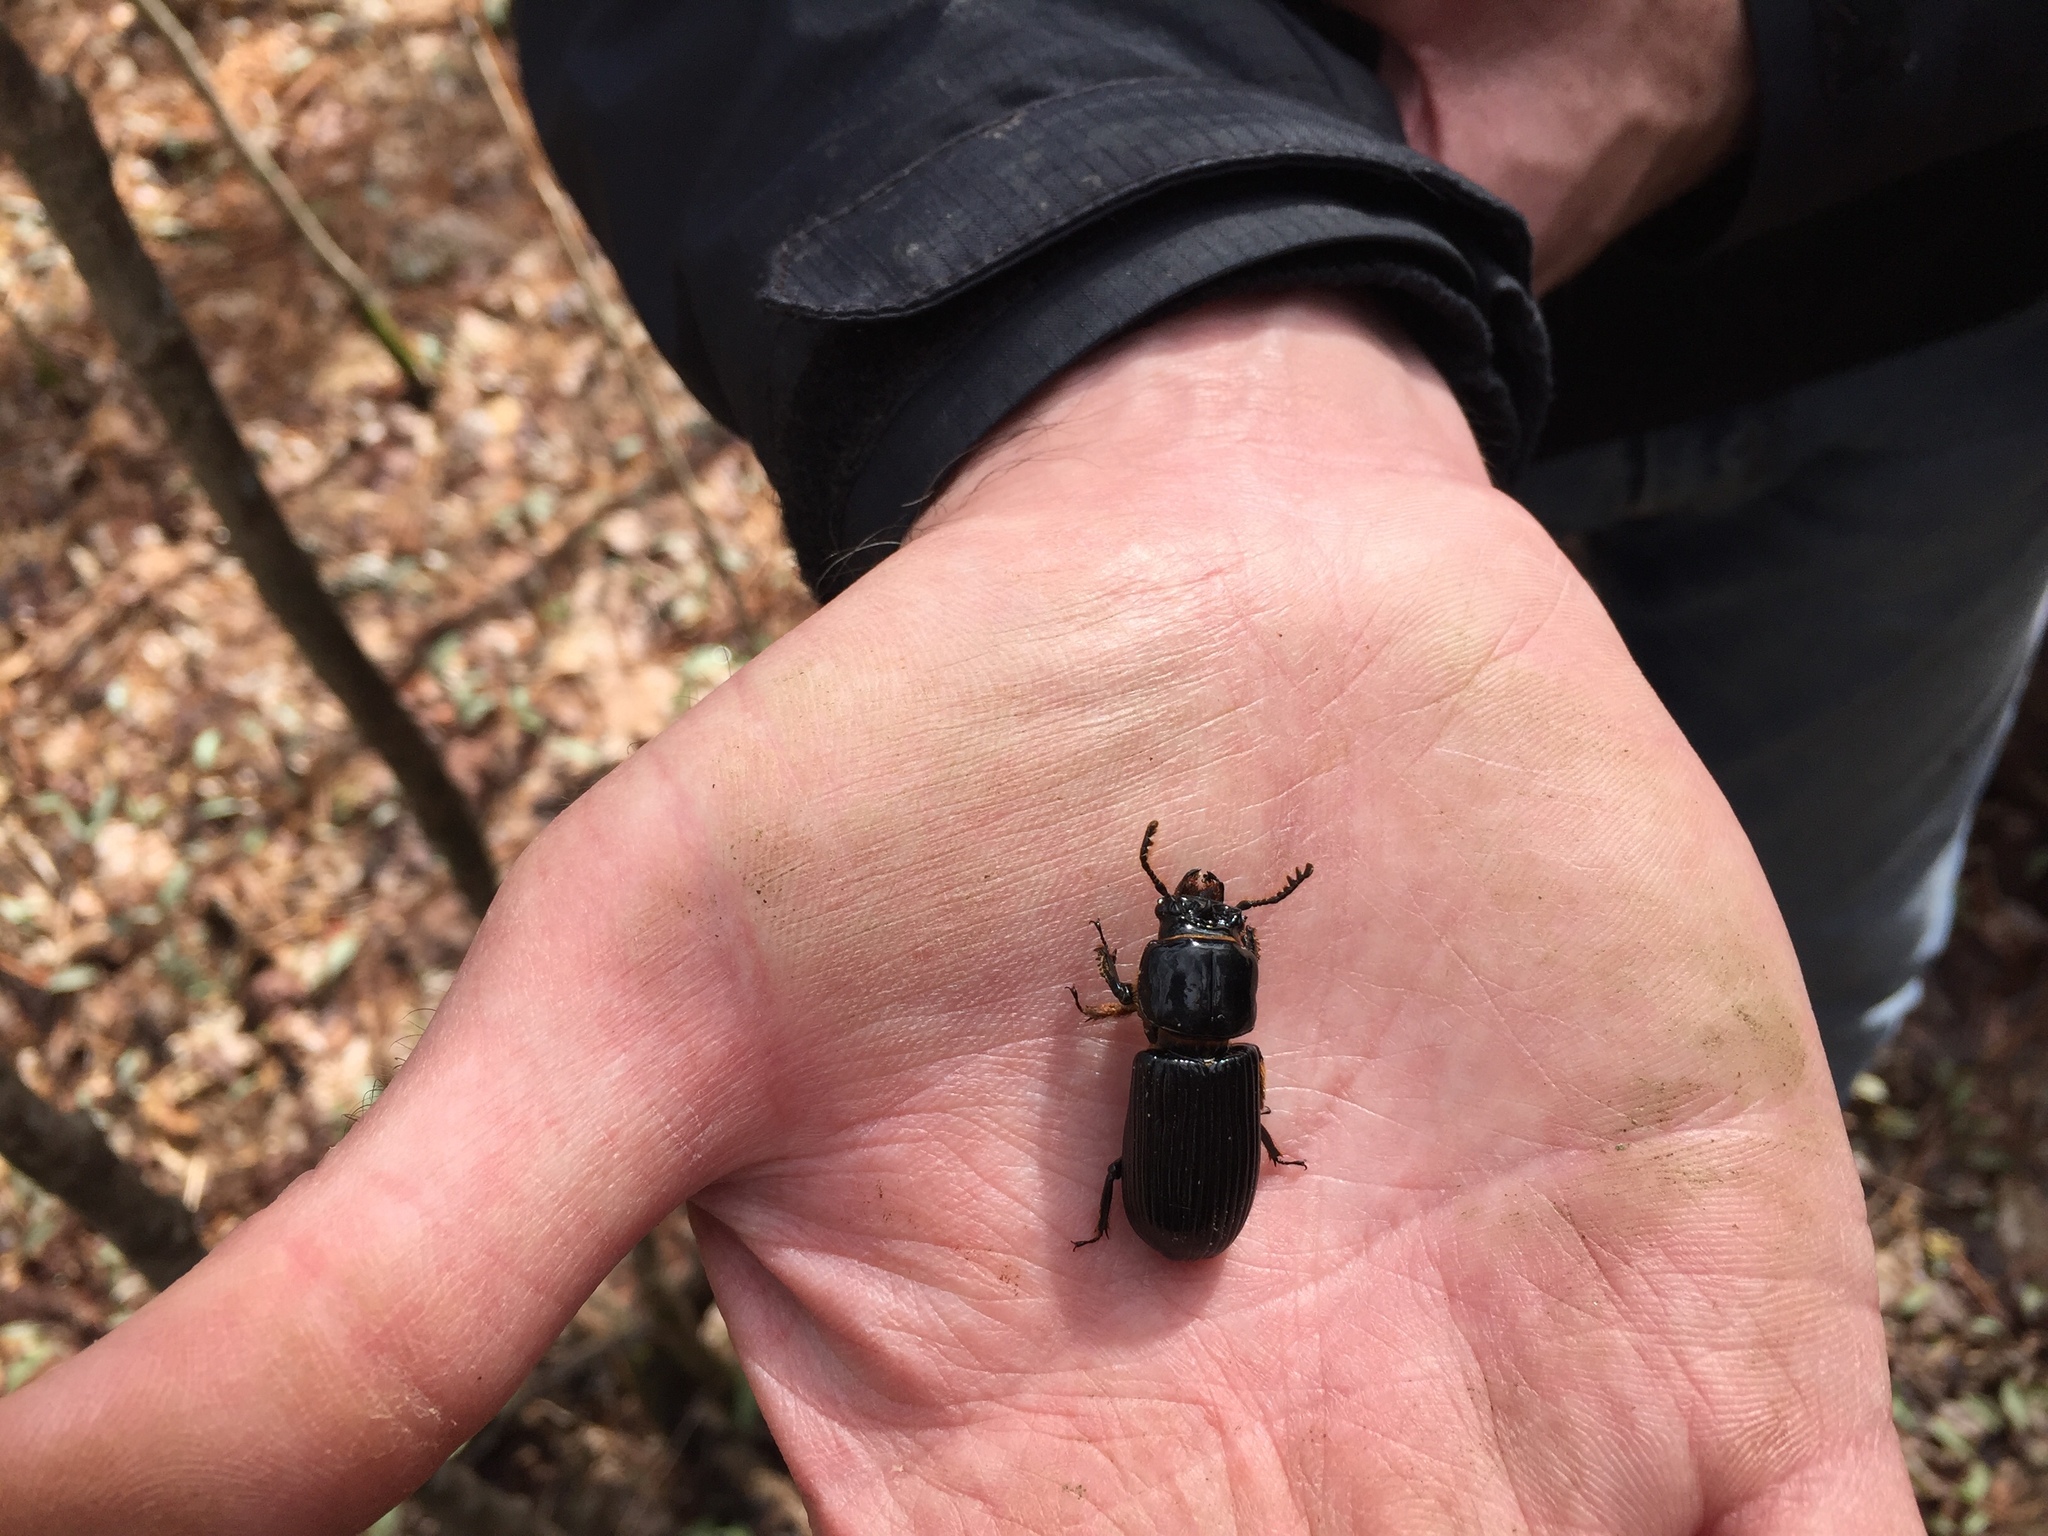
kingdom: Animalia
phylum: Arthropoda
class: Insecta
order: Coleoptera
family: Passalidae
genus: Odontotaenius
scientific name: Odontotaenius disjunctus
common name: Patent leather beetle
